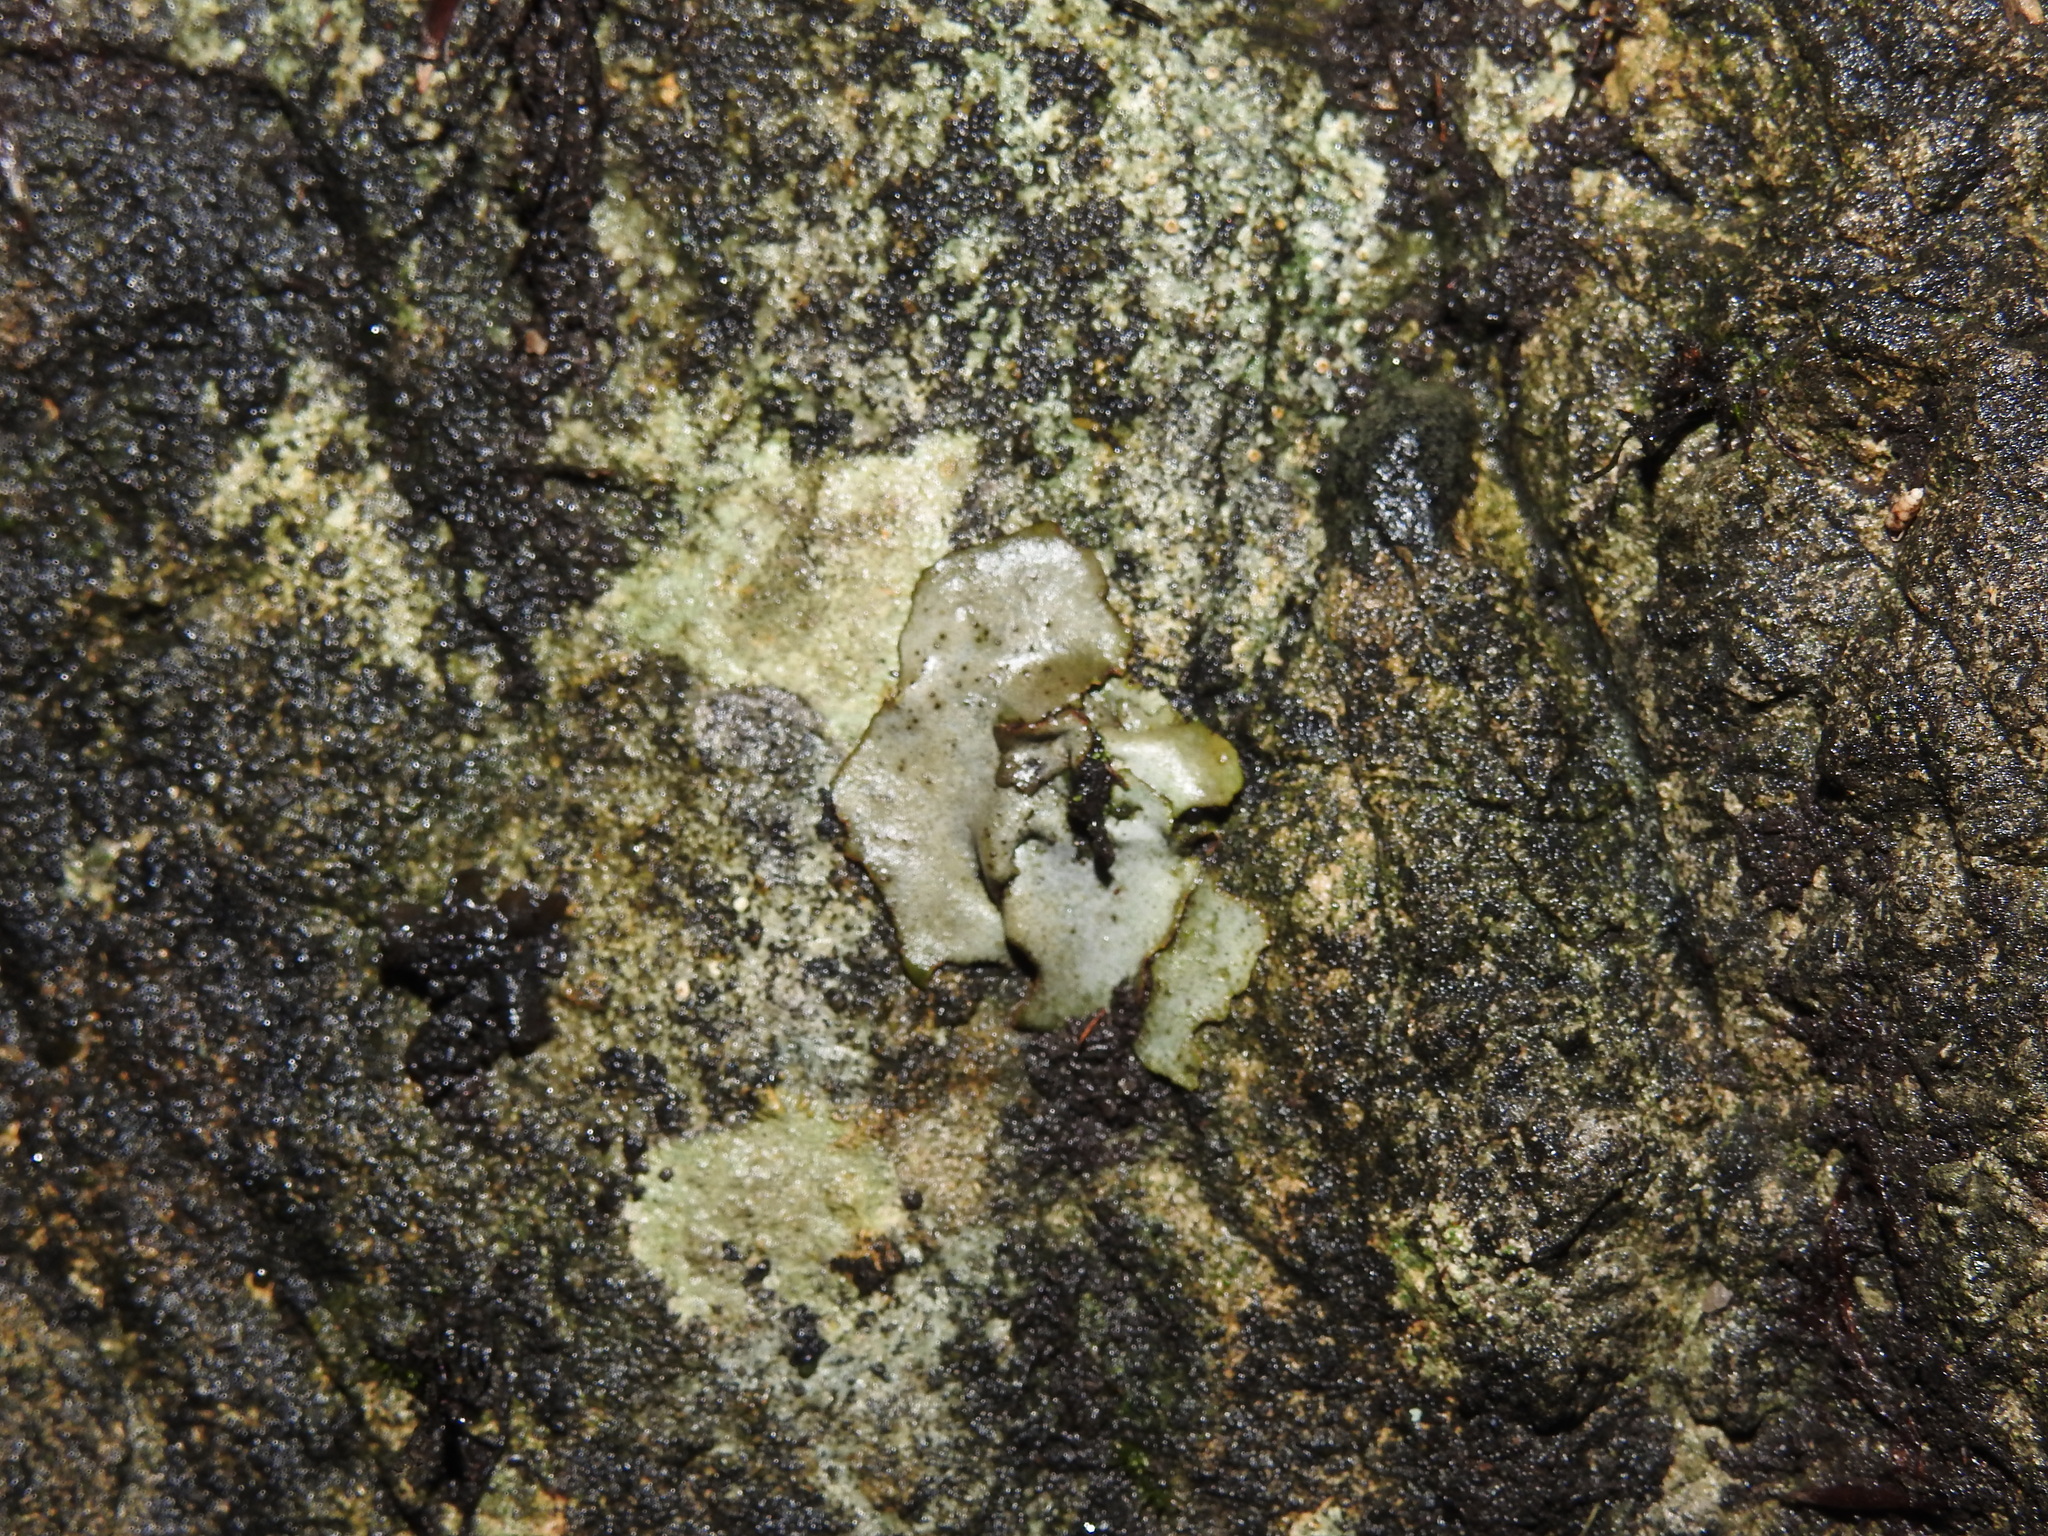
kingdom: Fungi
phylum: Ascomycota
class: Eurotiomycetes
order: Verrucariales
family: Verrucariaceae
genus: Dermatocarpon
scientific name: Dermatocarpon miniatum
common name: Leather lichen
